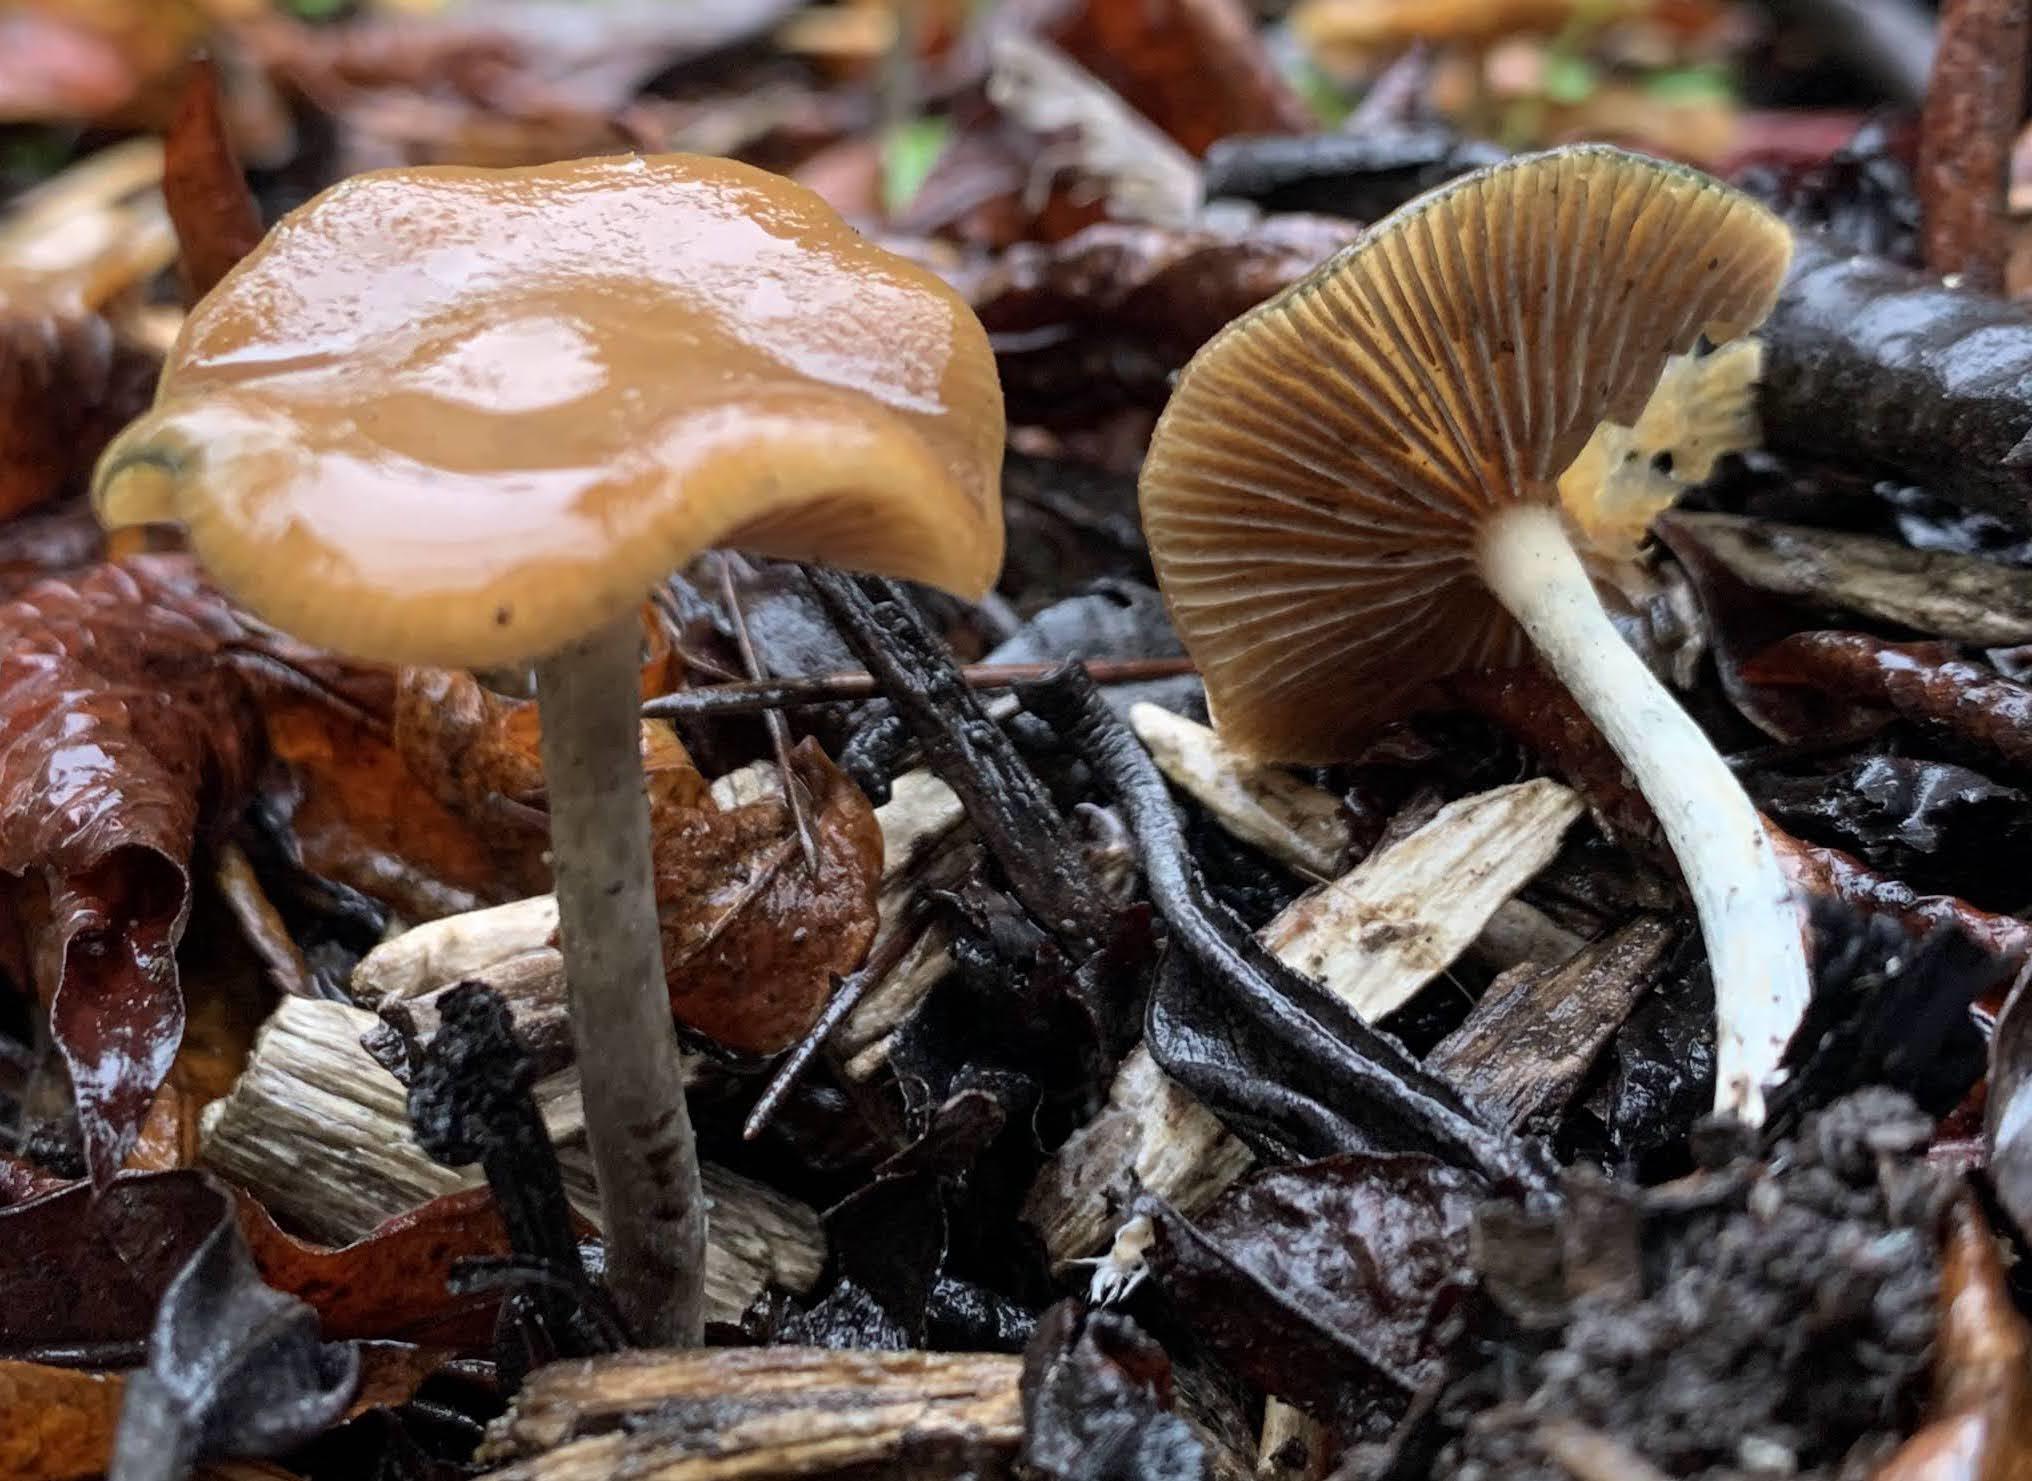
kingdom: Fungi
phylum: Basidiomycota
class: Agaricomycetes
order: Agaricales
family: Hymenogastraceae
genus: Psilocybe
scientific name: Psilocybe cyanescens
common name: Blueleg brownie
